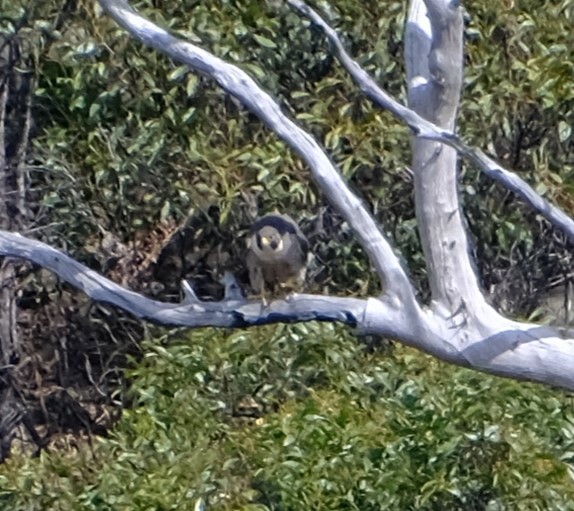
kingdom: Animalia
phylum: Chordata
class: Aves
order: Falconiformes
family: Falconidae
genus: Falco
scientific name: Falco peregrinus
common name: Peregrine falcon
